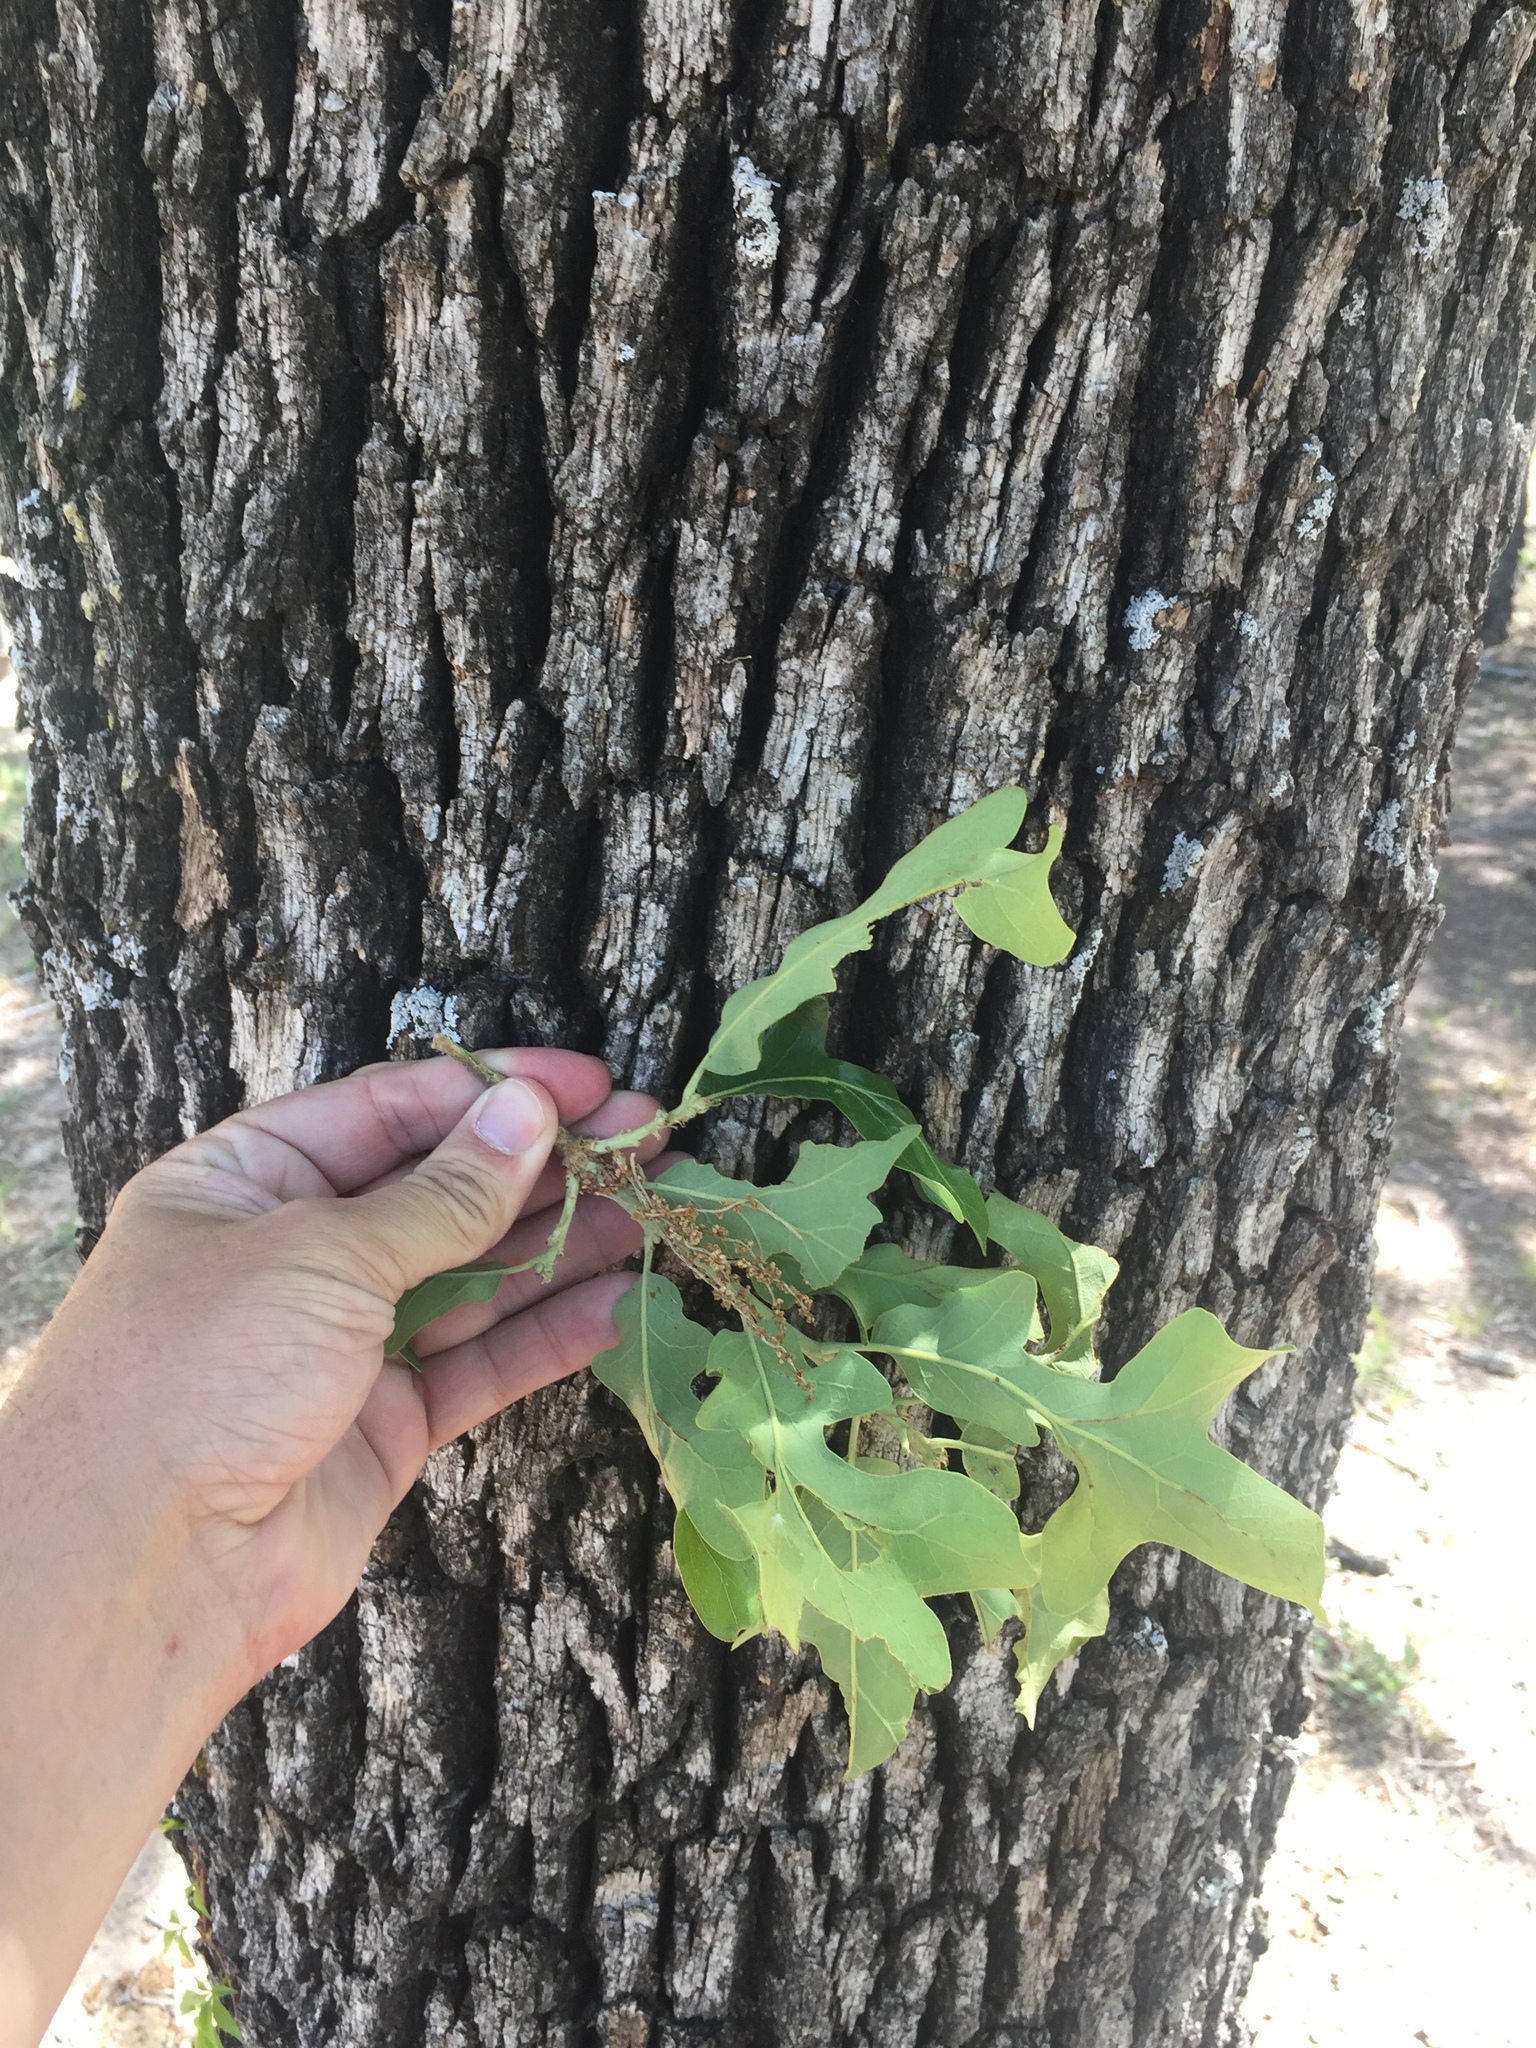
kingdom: Plantae
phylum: Tracheophyta
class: Magnoliopsida
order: Fagales
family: Fagaceae
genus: Quercus
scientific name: Quercus stellata
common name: Post oak
